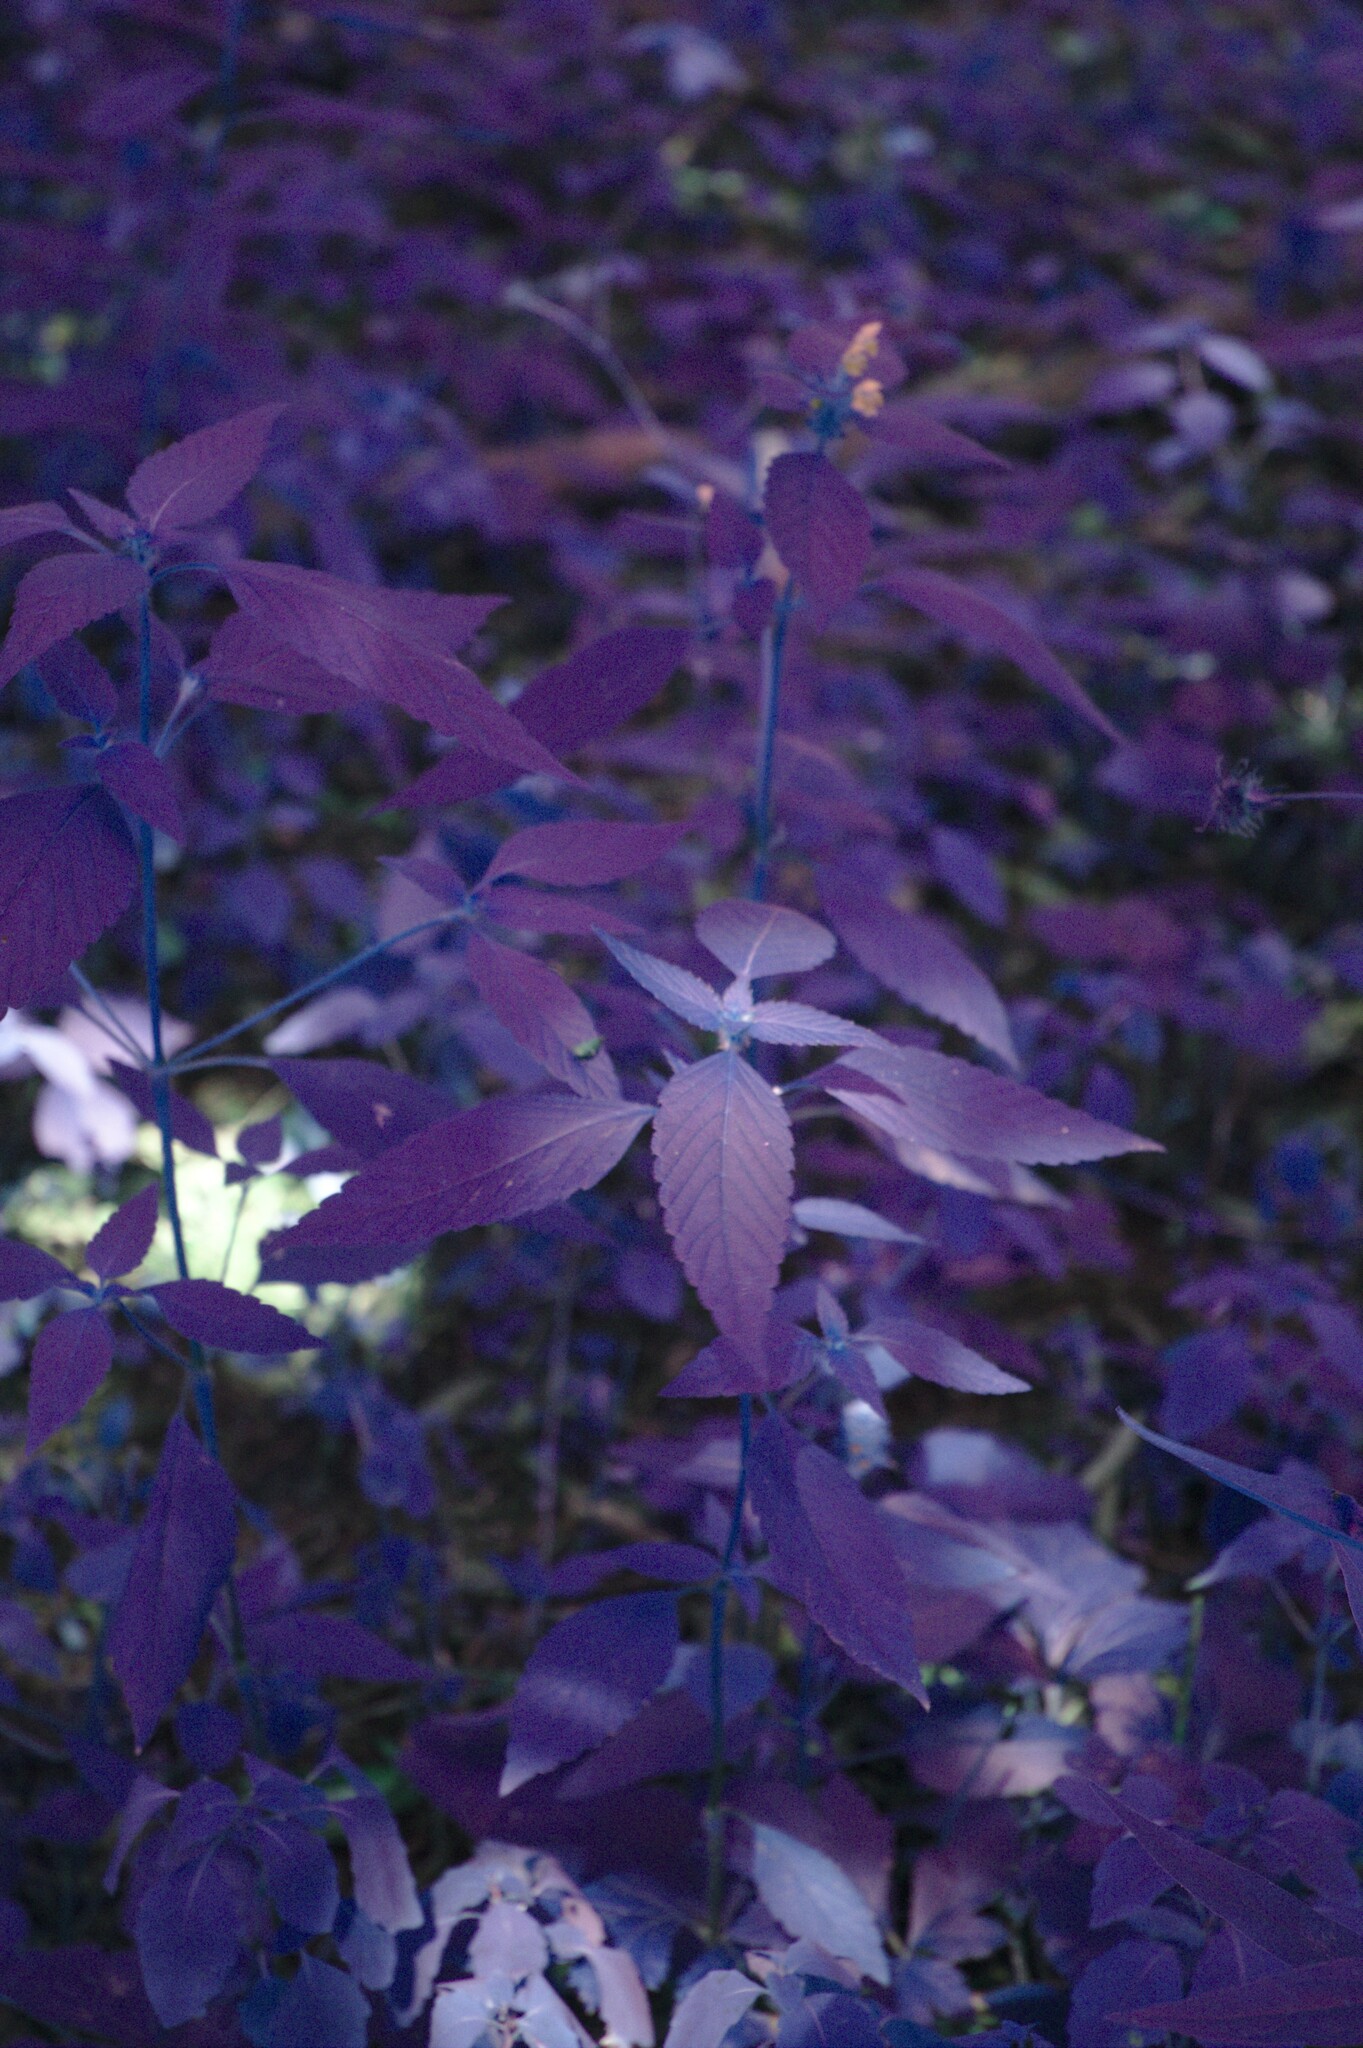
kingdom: Plantae
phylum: Tracheophyta
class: Magnoliopsida
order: Lamiales
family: Lamiaceae
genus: Galeopsis
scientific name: Galeopsis tetrahit
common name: Common hemp-nettle
